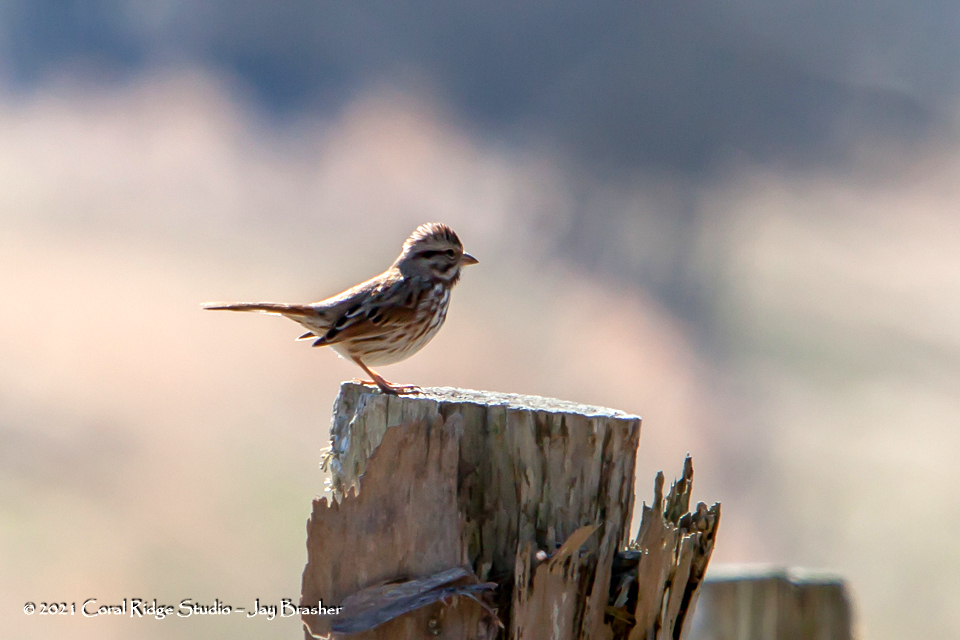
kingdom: Animalia
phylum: Chordata
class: Aves
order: Passeriformes
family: Passerellidae
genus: Melospiza
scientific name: Melospiza melodia
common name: Song sparrow
